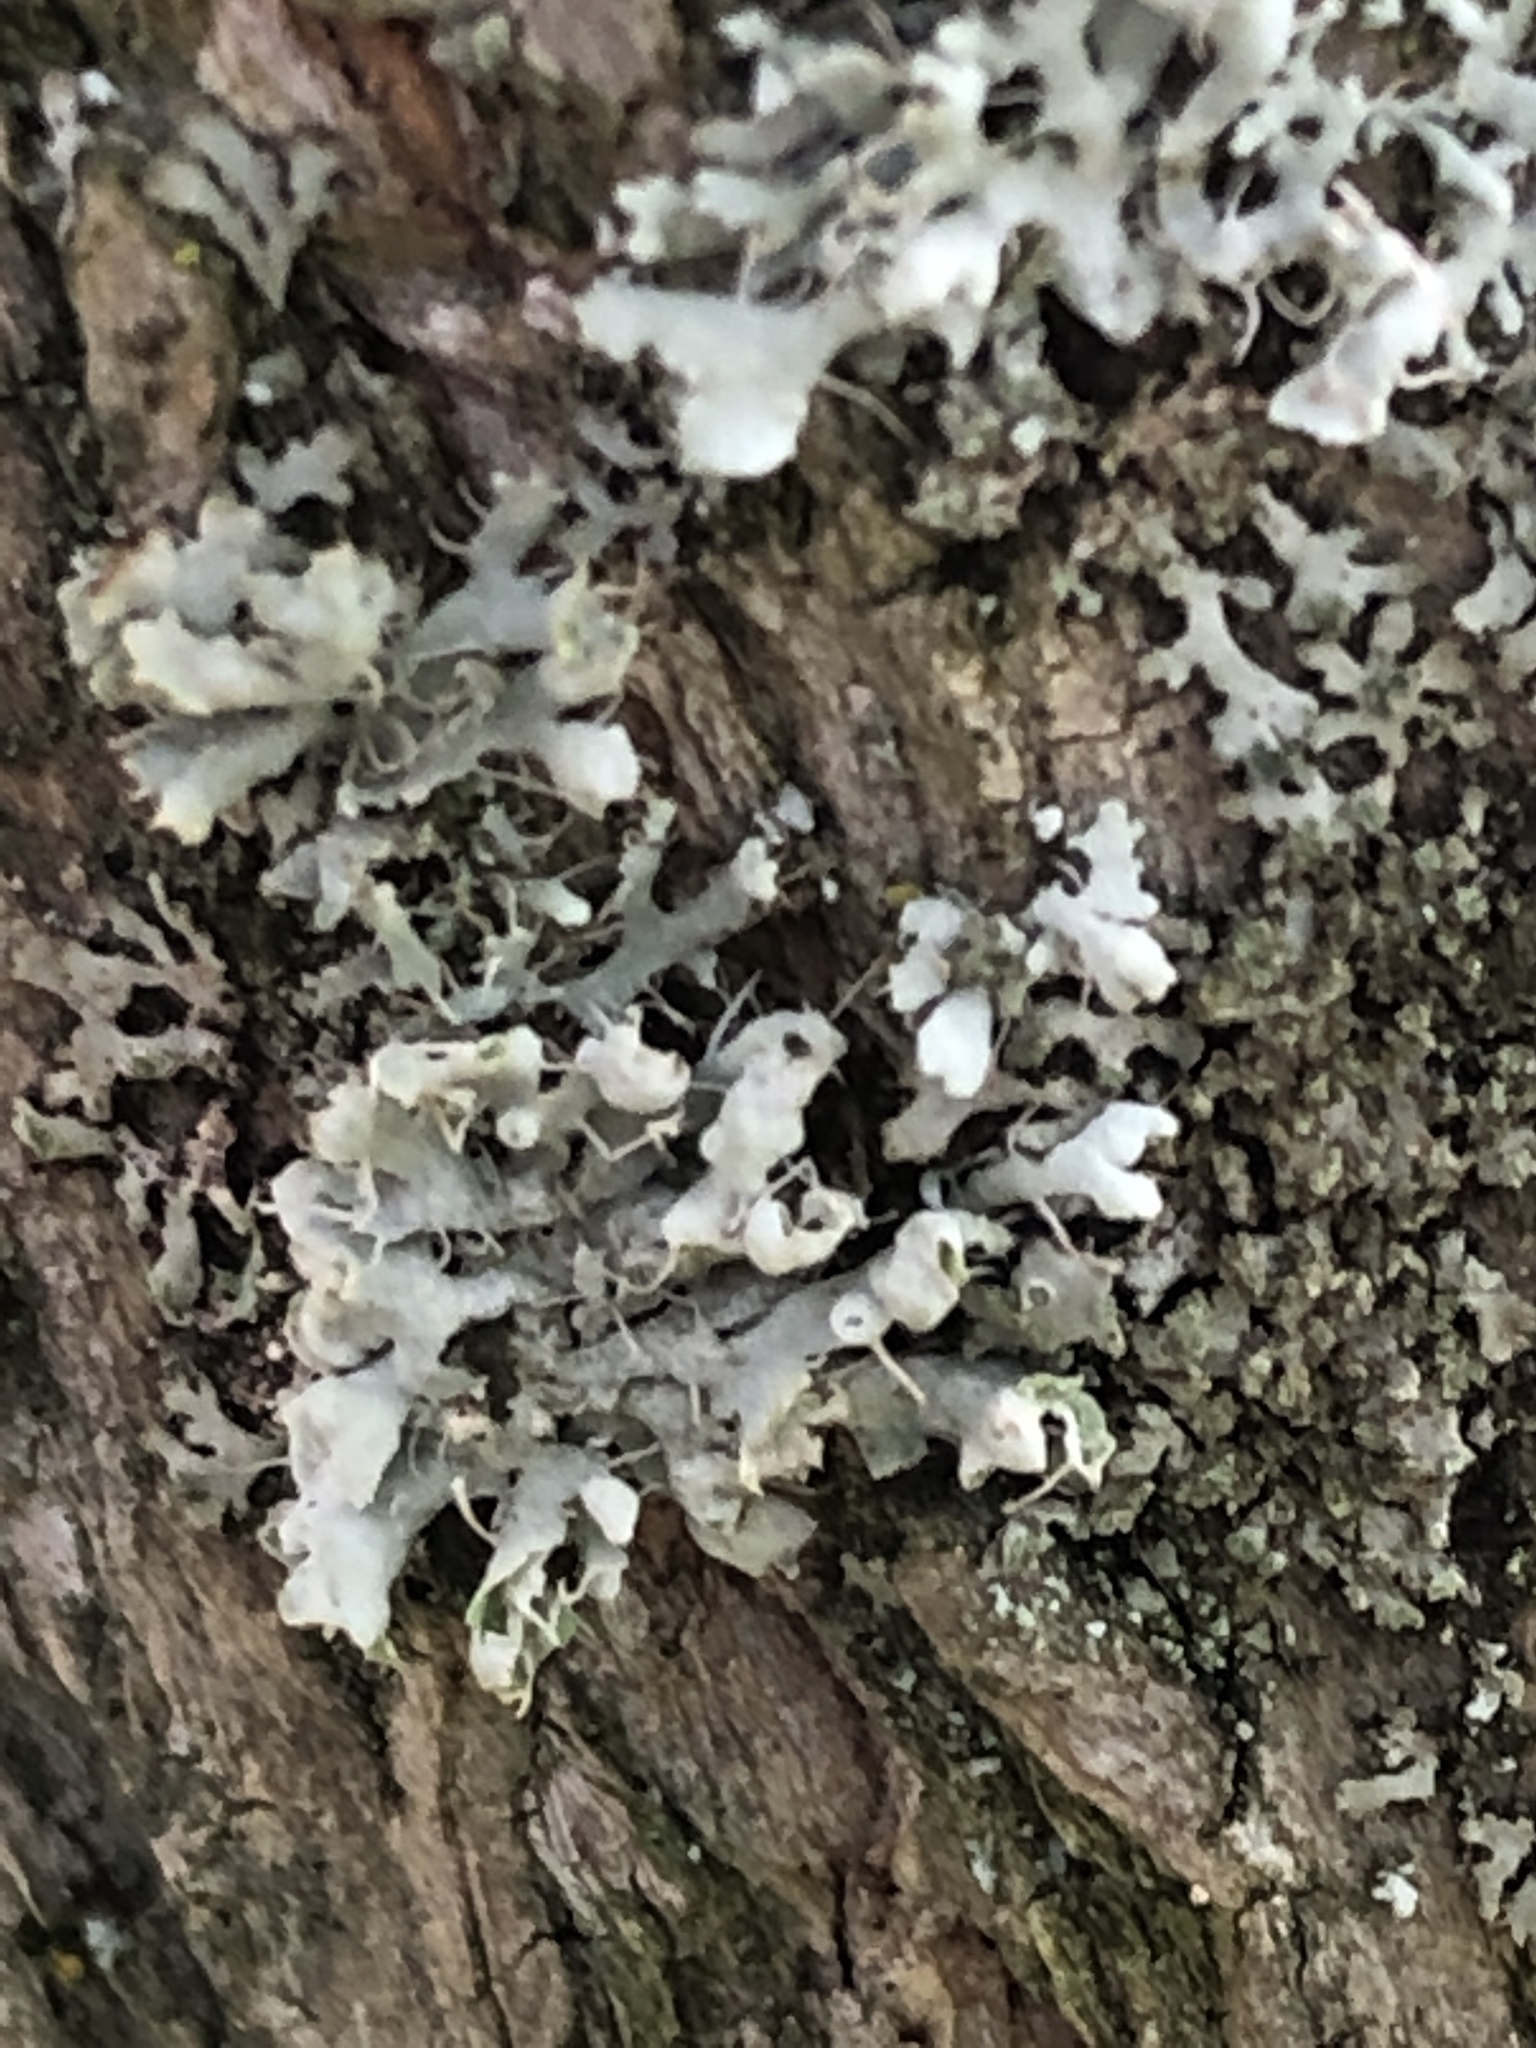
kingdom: Fungi
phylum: Ascomycota
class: Lecanoromycetes
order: Caliciales
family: Physciaceae
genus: Physcia
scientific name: Physcia adscendens
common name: Hooded rosette lichen
